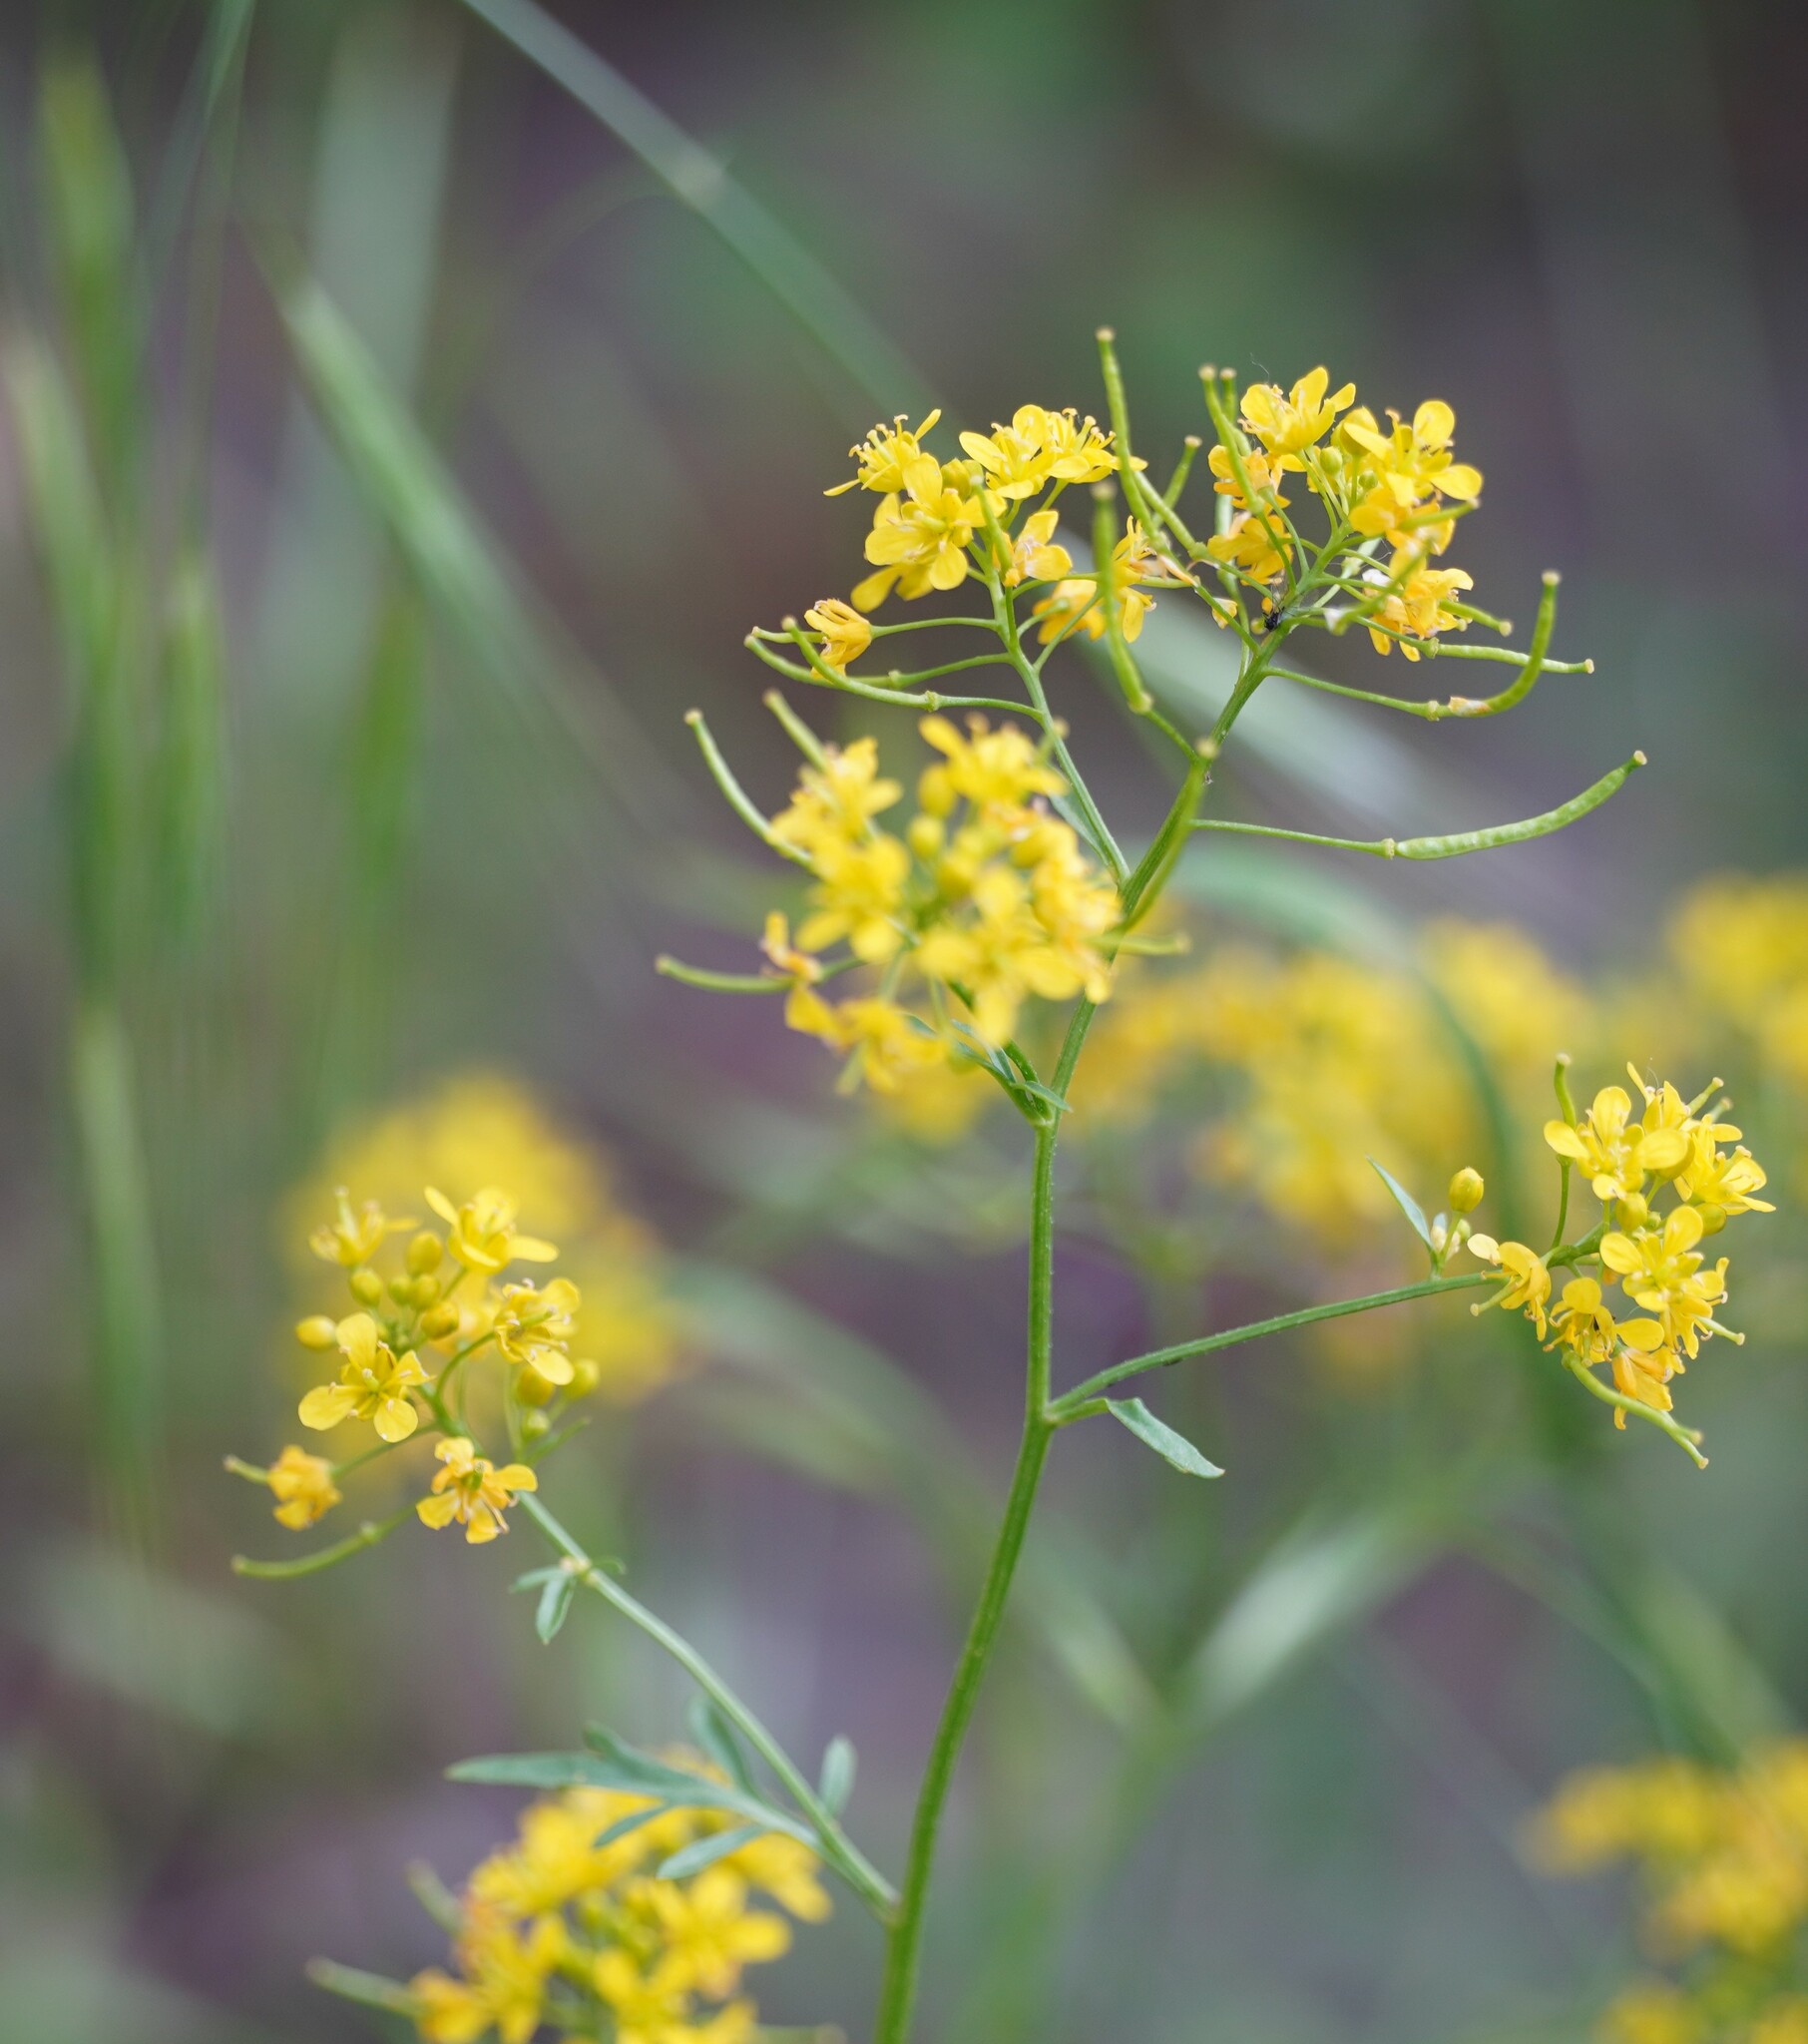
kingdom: Plantae
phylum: Tracheophyta
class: Magnoliopsida
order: Brassicales
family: Brassicaceae
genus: Rorippa
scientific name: Rorippa sylvestris
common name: Creeping yellowcress
